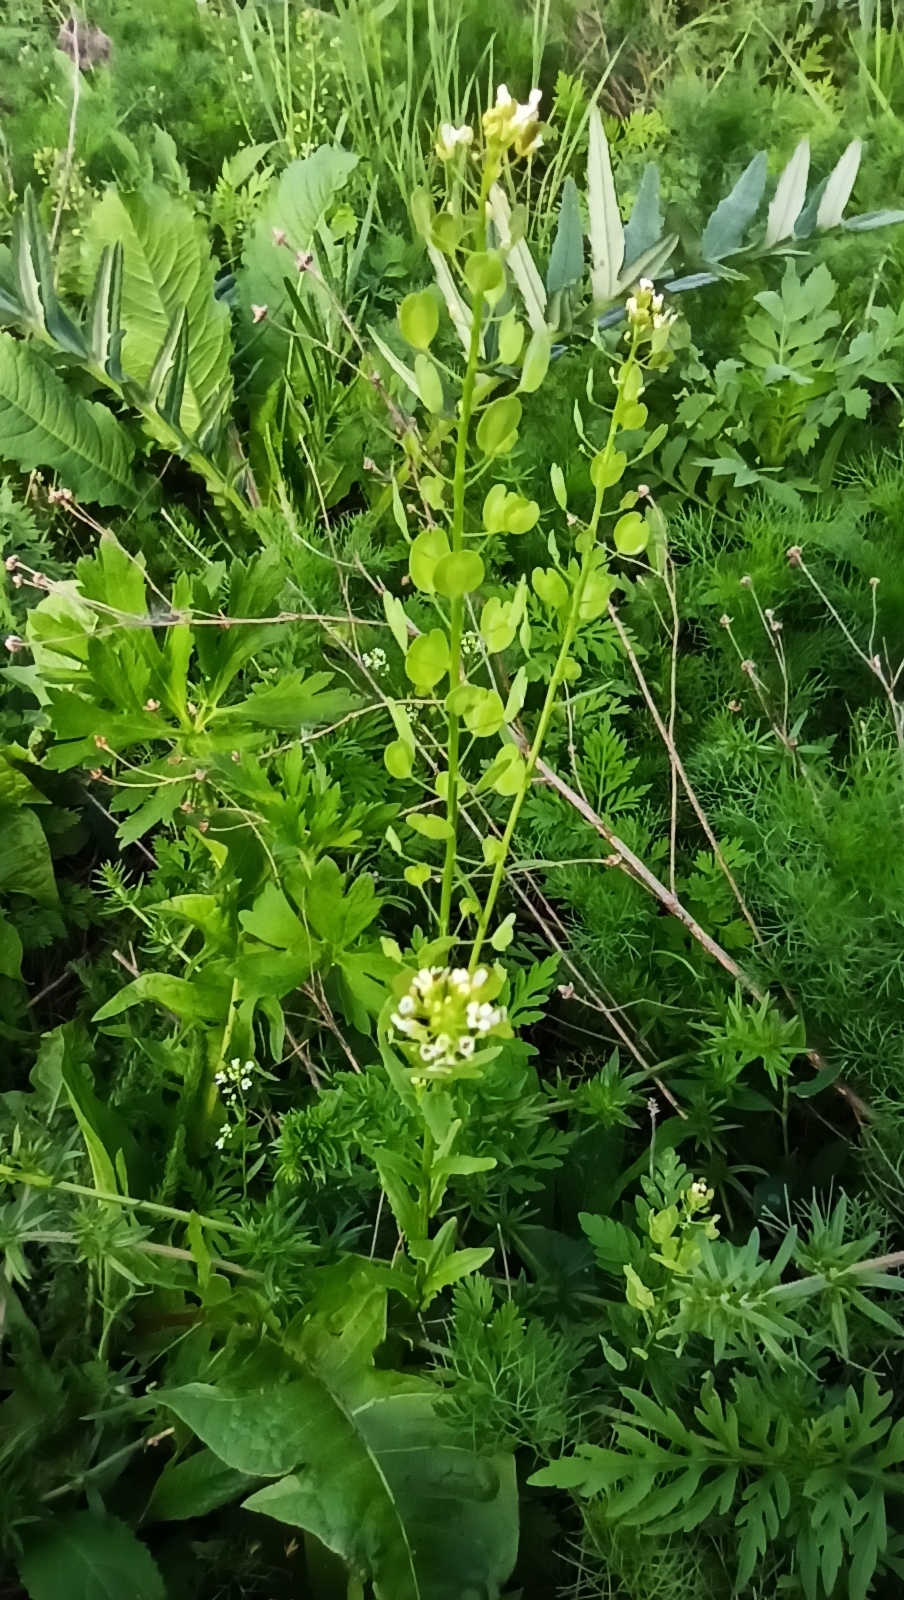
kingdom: Plantae
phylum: Tracheophyta
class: Magnoliopsida
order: Brassicales
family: Brassicaceae
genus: Thlaspi
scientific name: Thlaspi arvense
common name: Field pennycress
